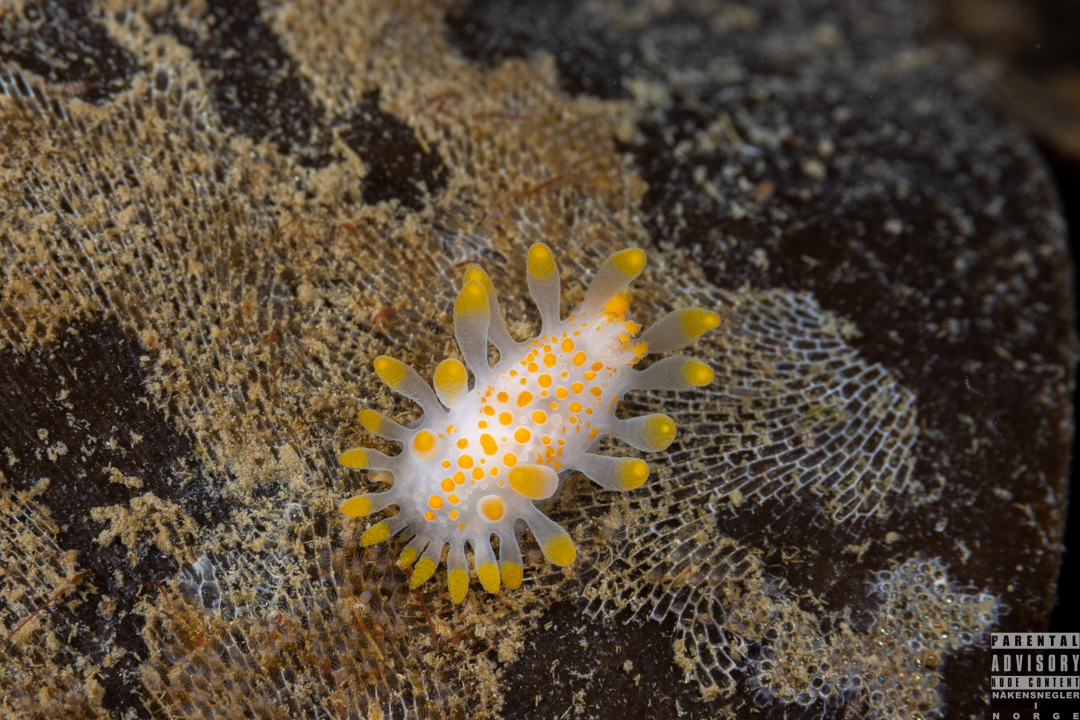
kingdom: Animalia
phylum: Mollusca
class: Gastropoda
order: Nudibranchia
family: Polyceridae
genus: Limacia
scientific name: Limacia clavigera
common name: Orange-clubbed sea slug
